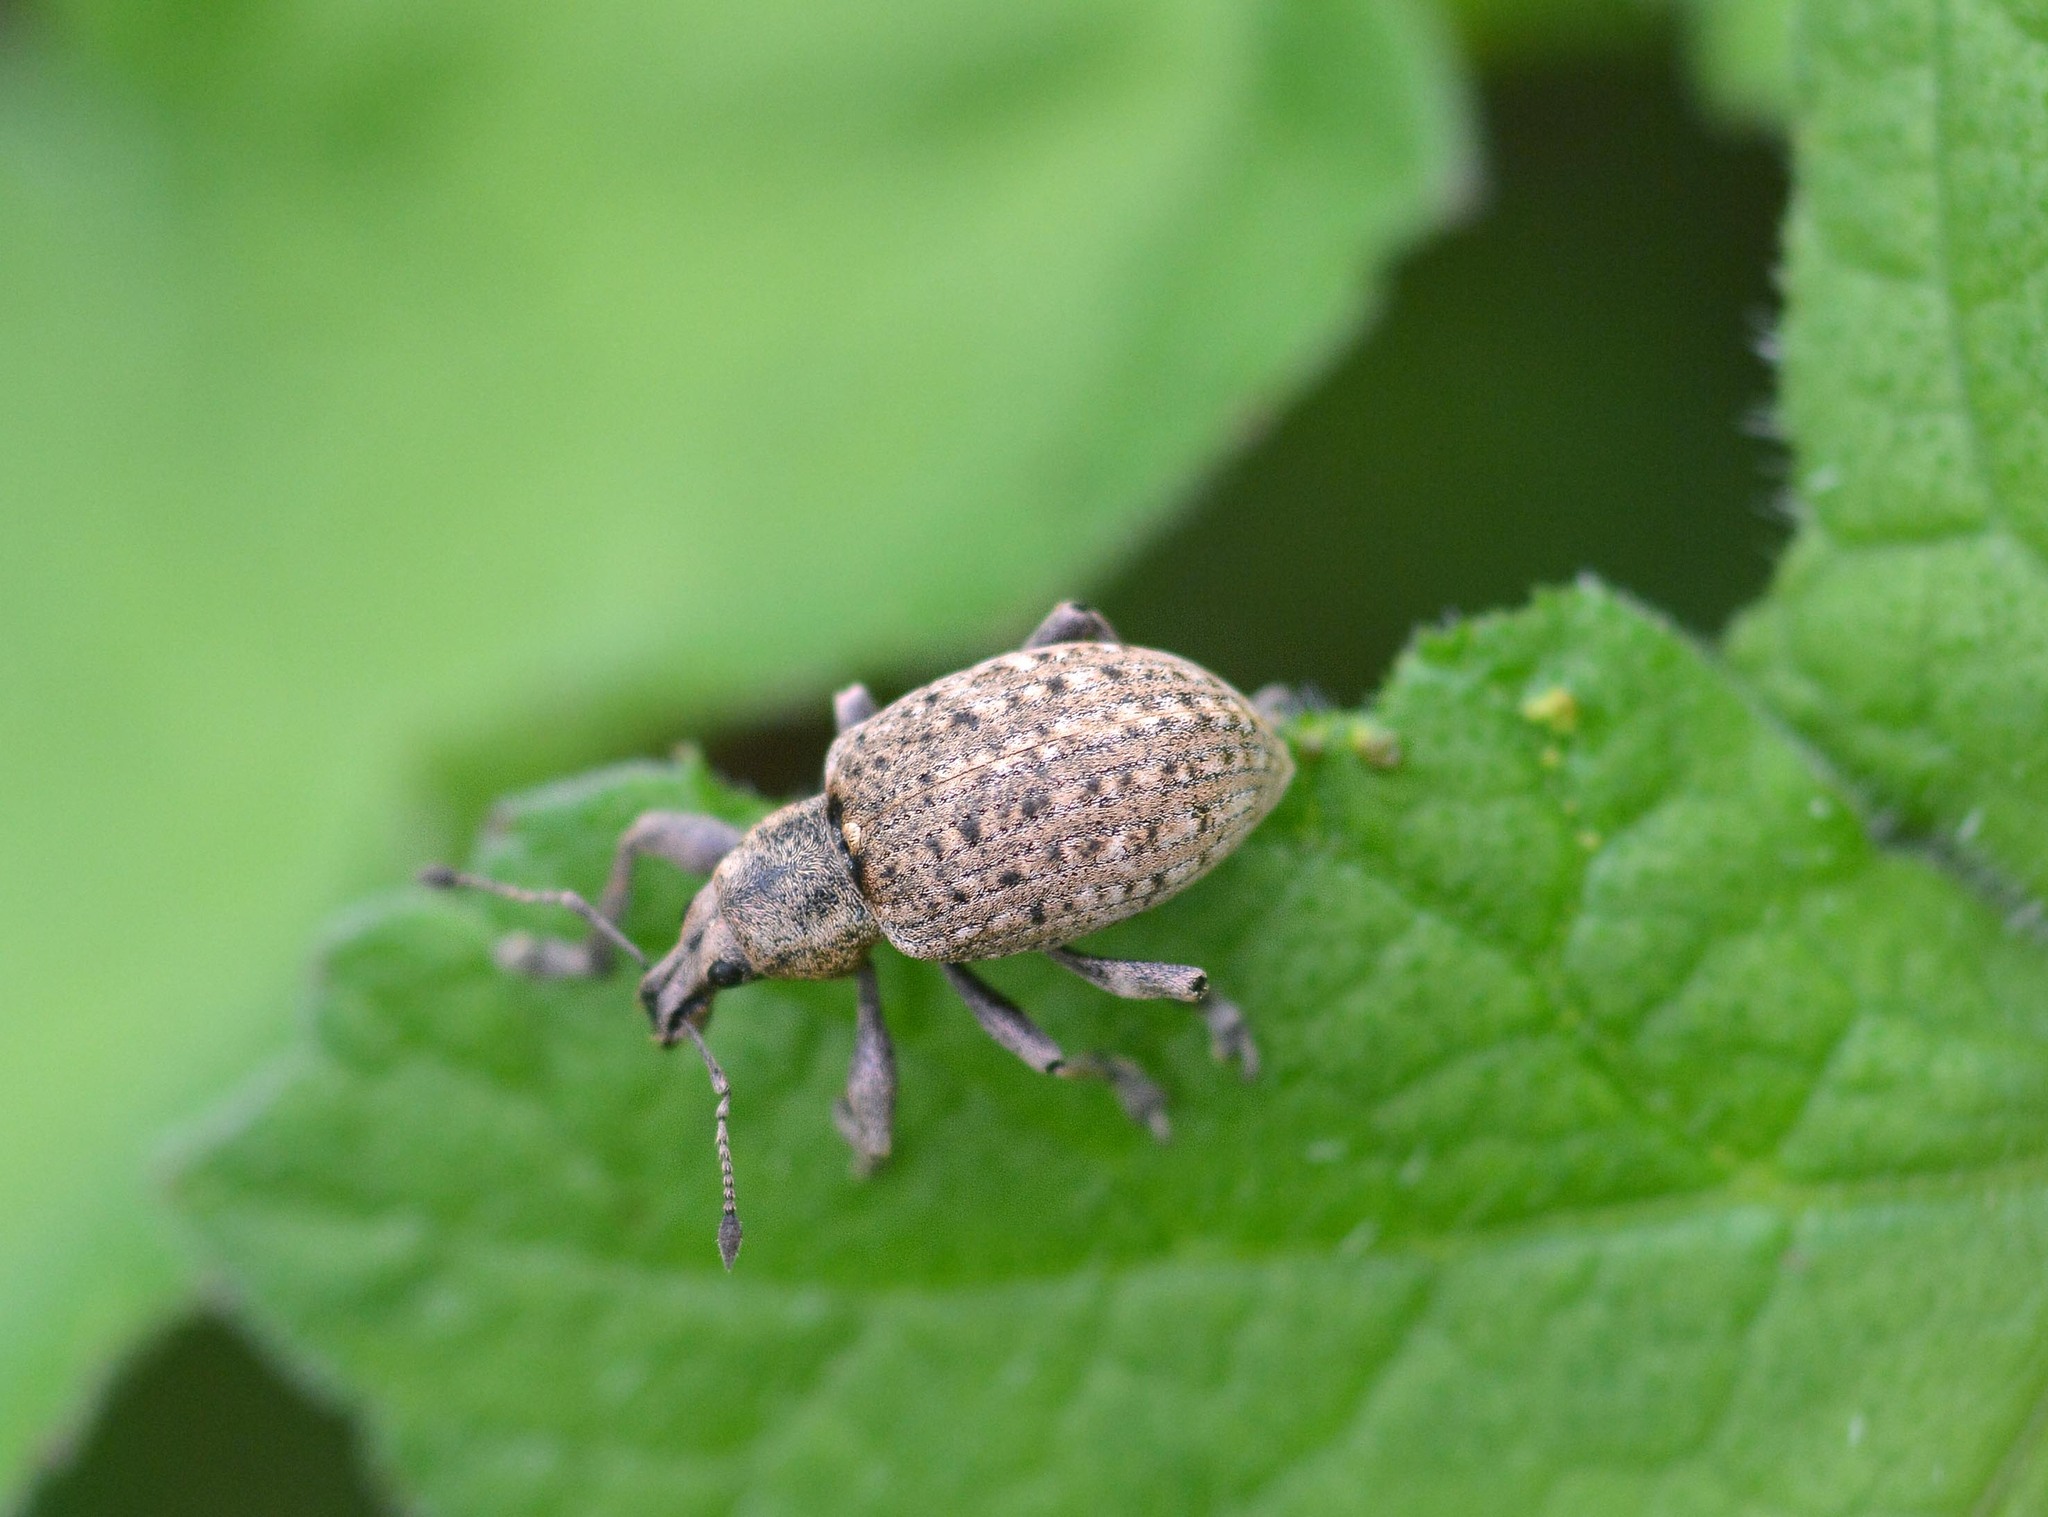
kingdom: Animalia
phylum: Arthropoda
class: Insecta
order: Coleoptera
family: Curculionidae
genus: Liophloeus
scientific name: Liophloeus tessulatus
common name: Weevil
